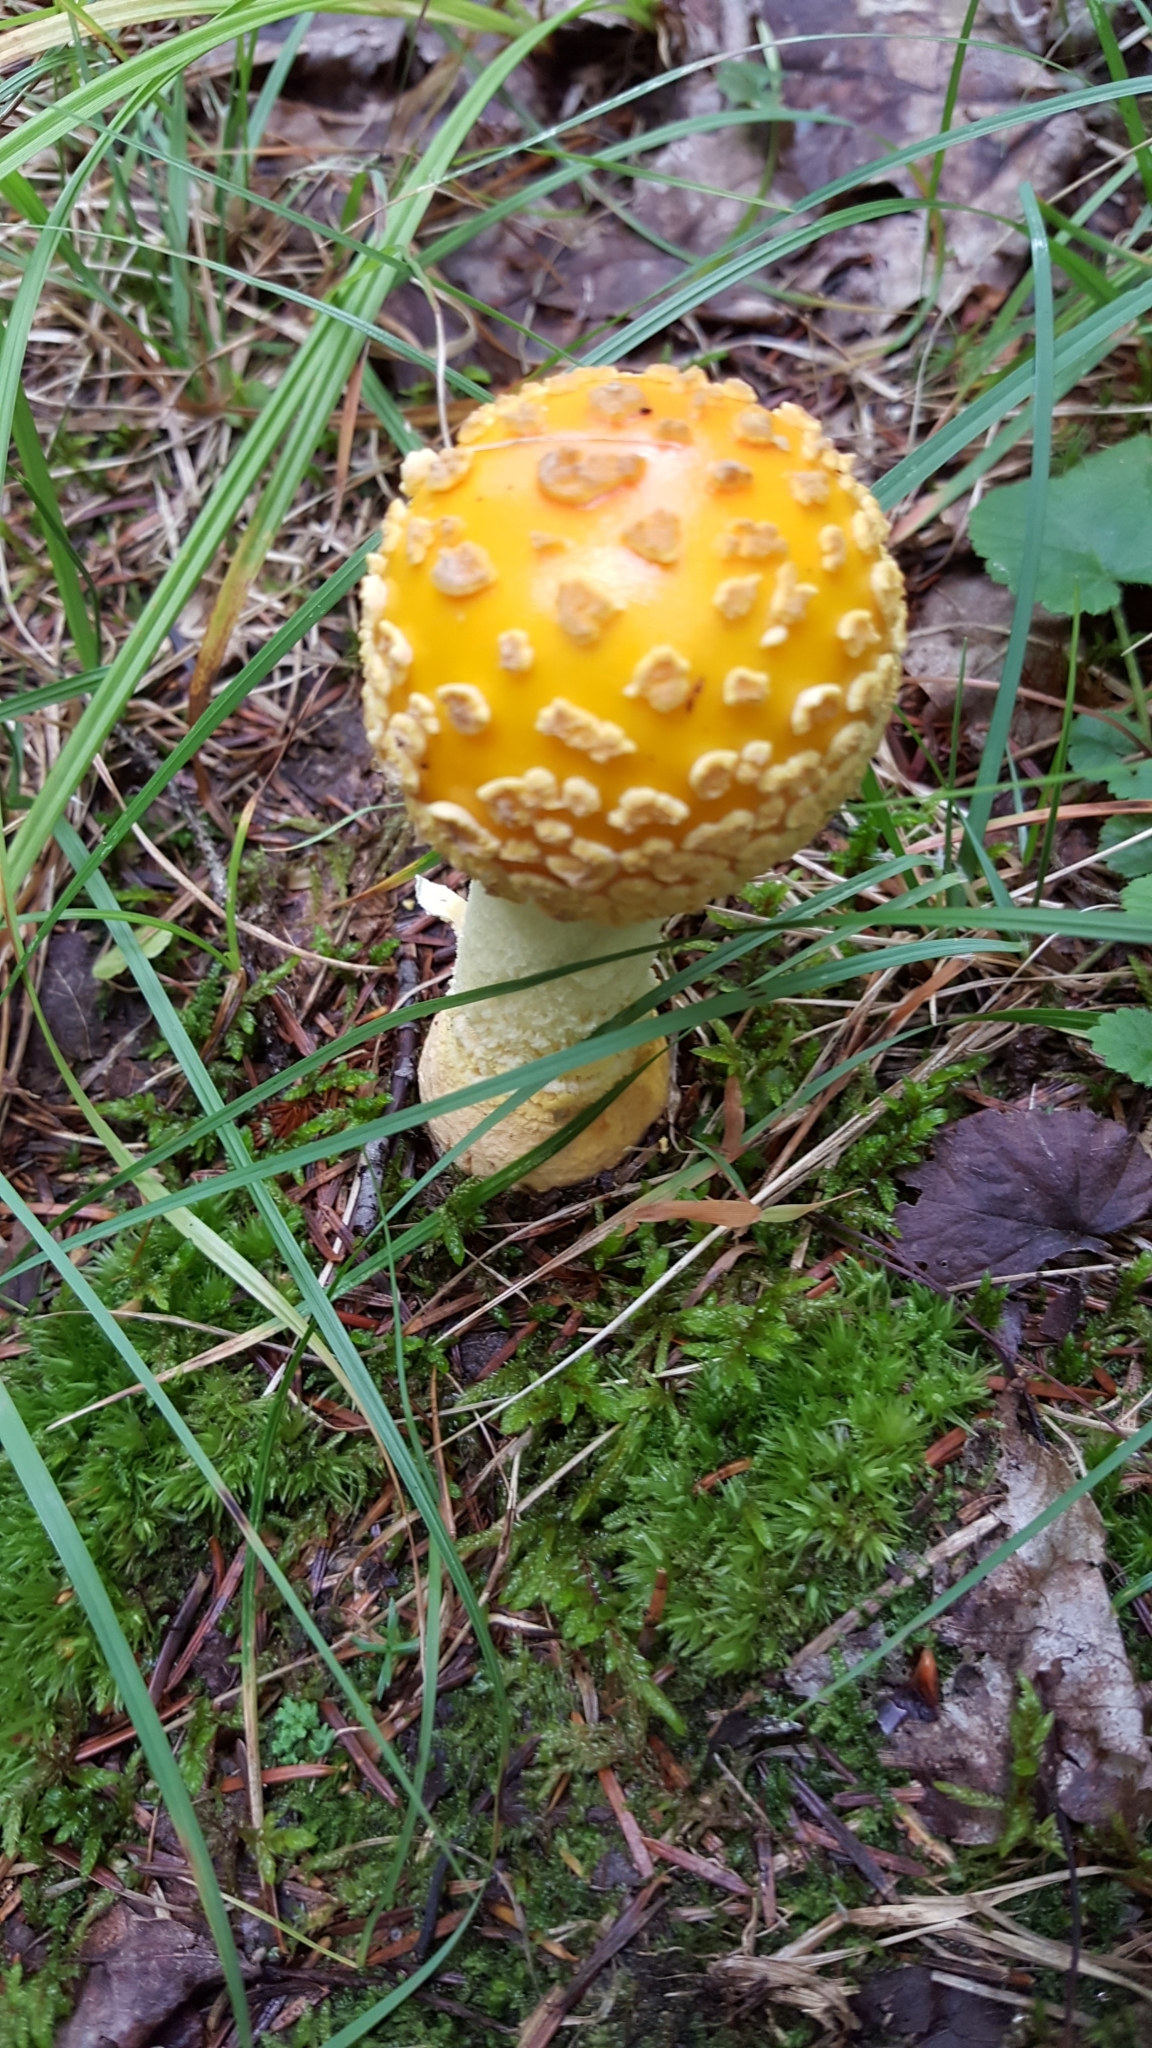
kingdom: Fungi
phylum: Basidiomycota
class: Agaricomycetes
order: Agaricales
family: Amanitaceae
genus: Amanita
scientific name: Amanita muscaria
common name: Fly agaric
